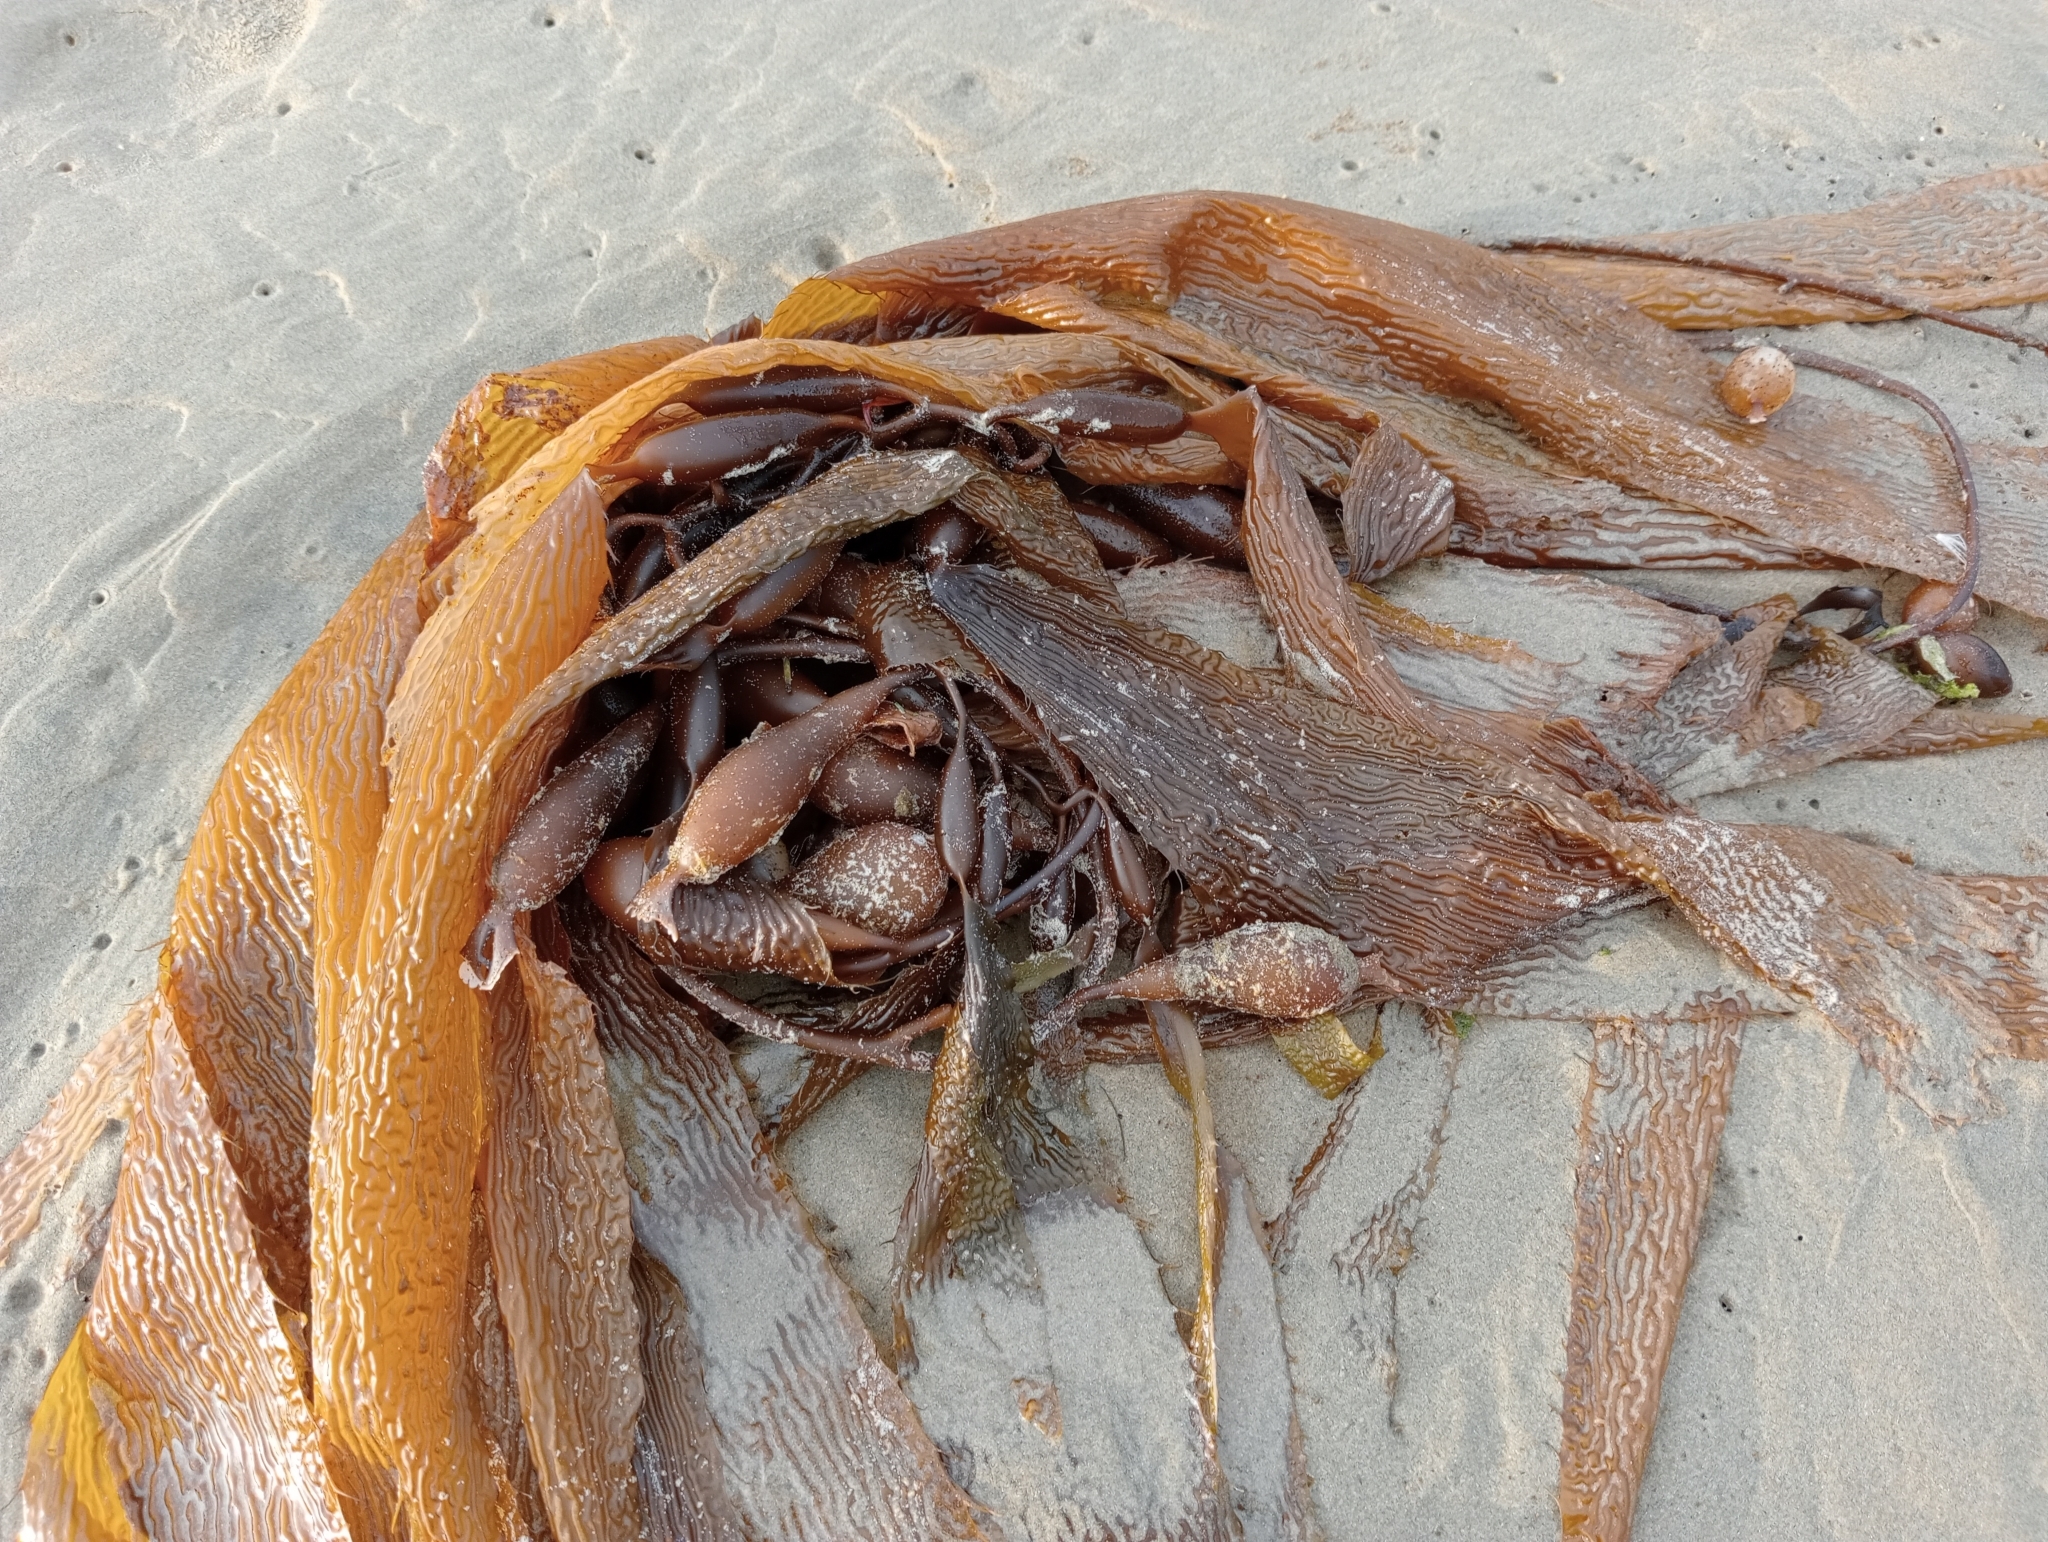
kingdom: Chromista
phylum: Ochrophyta
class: Phaeophyceae
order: Laminariales
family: Laminariaceae
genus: Macrocystis
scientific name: Macrocystis pyrifera
